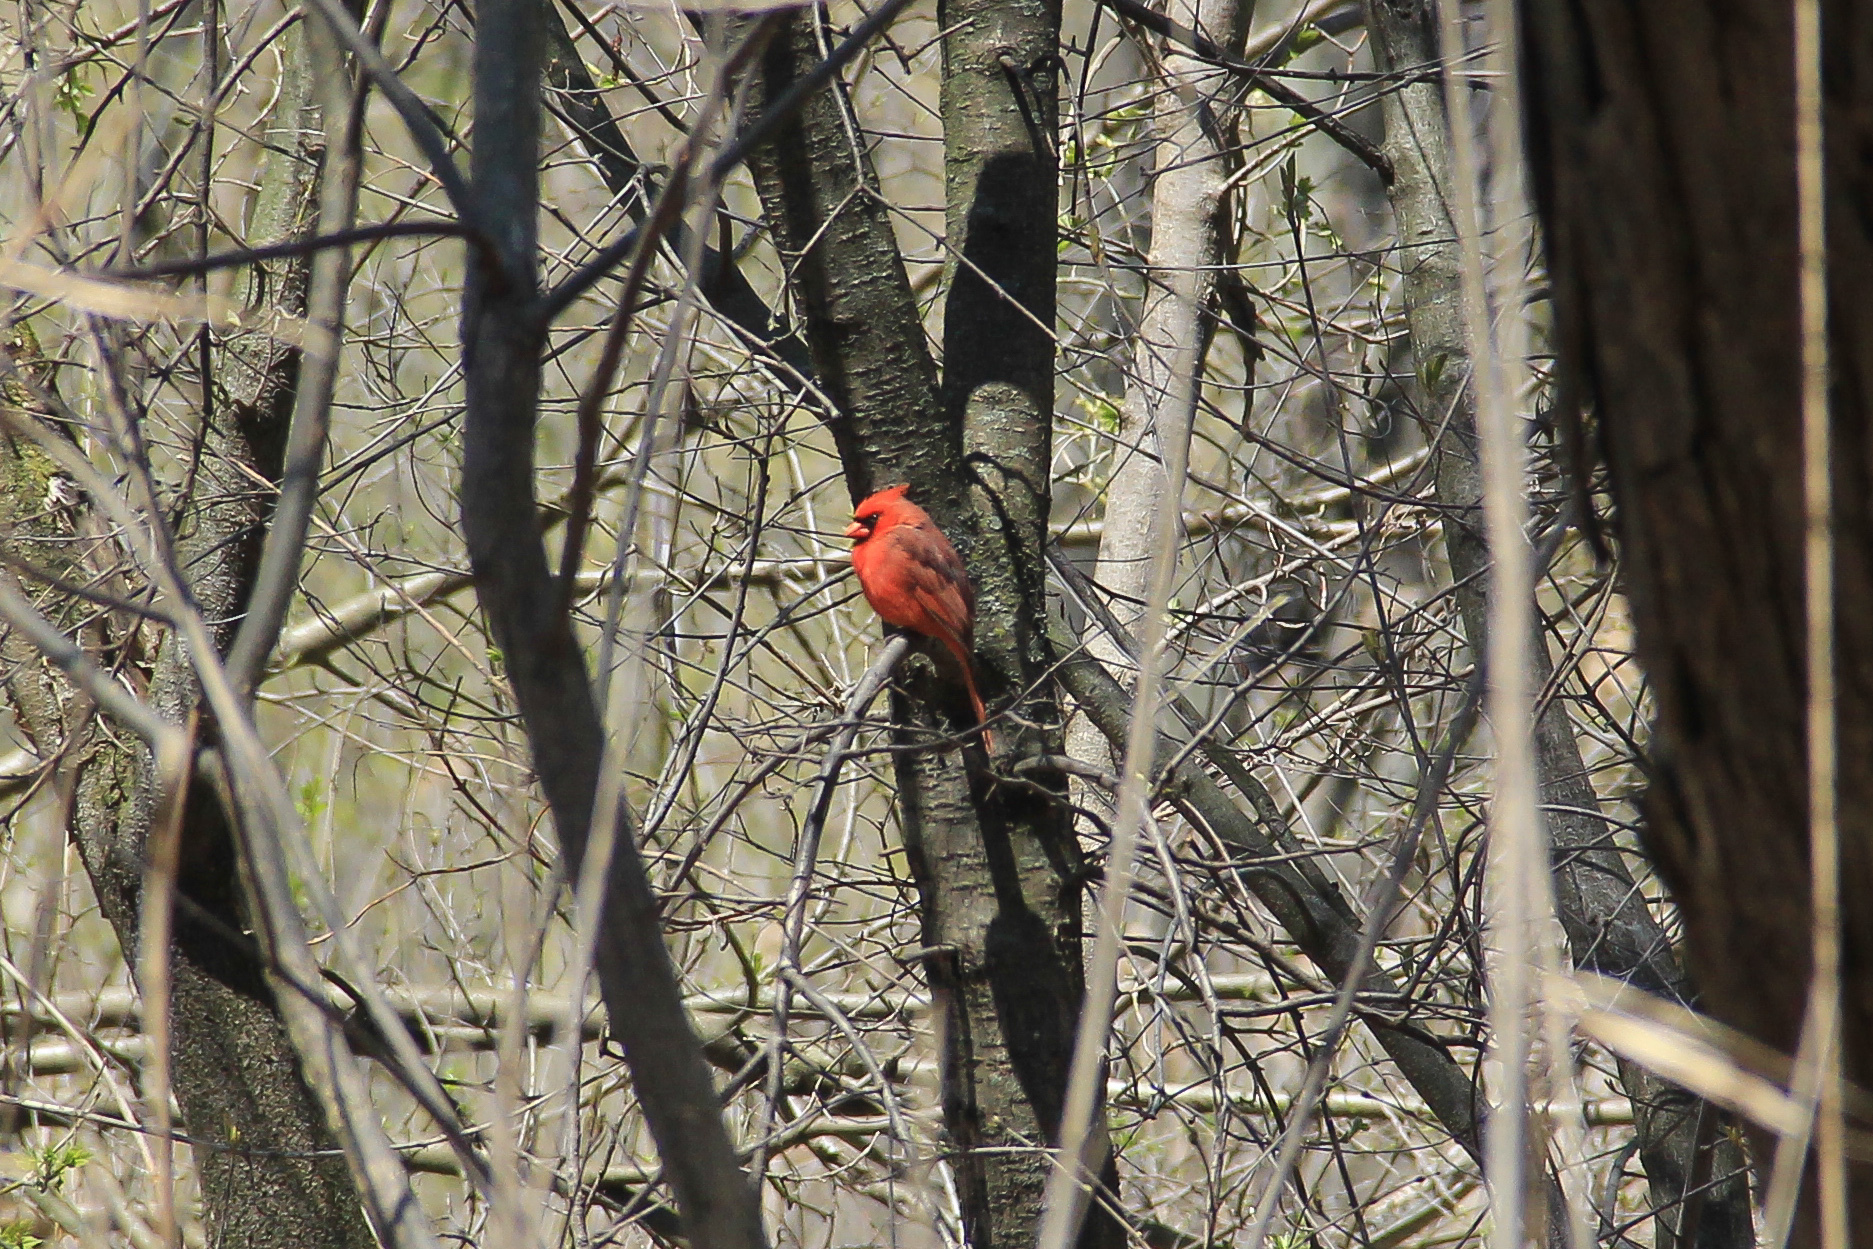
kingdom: Animalia
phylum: Chordata
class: Aves
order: Passeriformes
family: Cardinalidae
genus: Cardinalis
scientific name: Cardinalis cardinalis
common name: Northern cardinal
